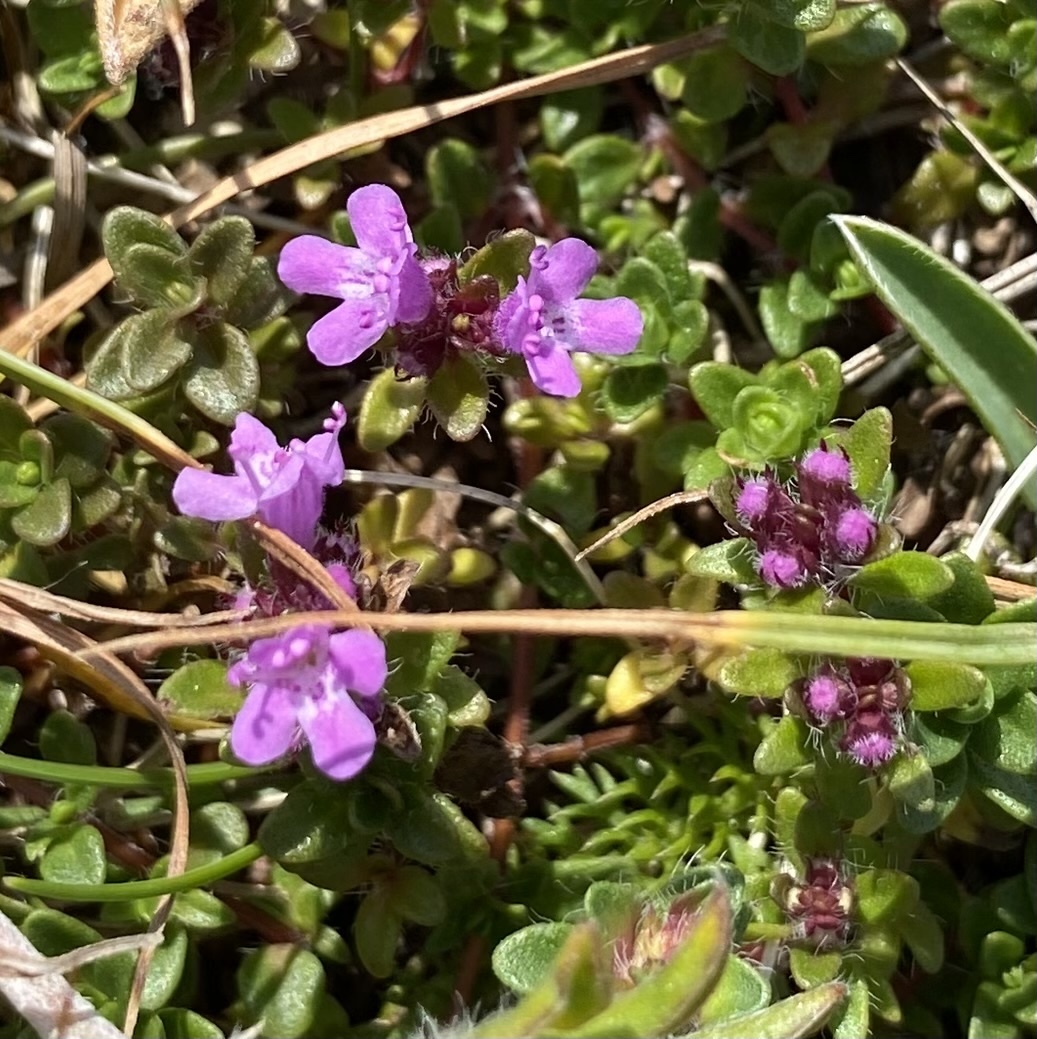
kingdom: Plantae
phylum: Tracheophyta
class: Magnoliopsida
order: Lamiales
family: Lamiaceae
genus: Thymus
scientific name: Thymus praecox
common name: Wild thyme
